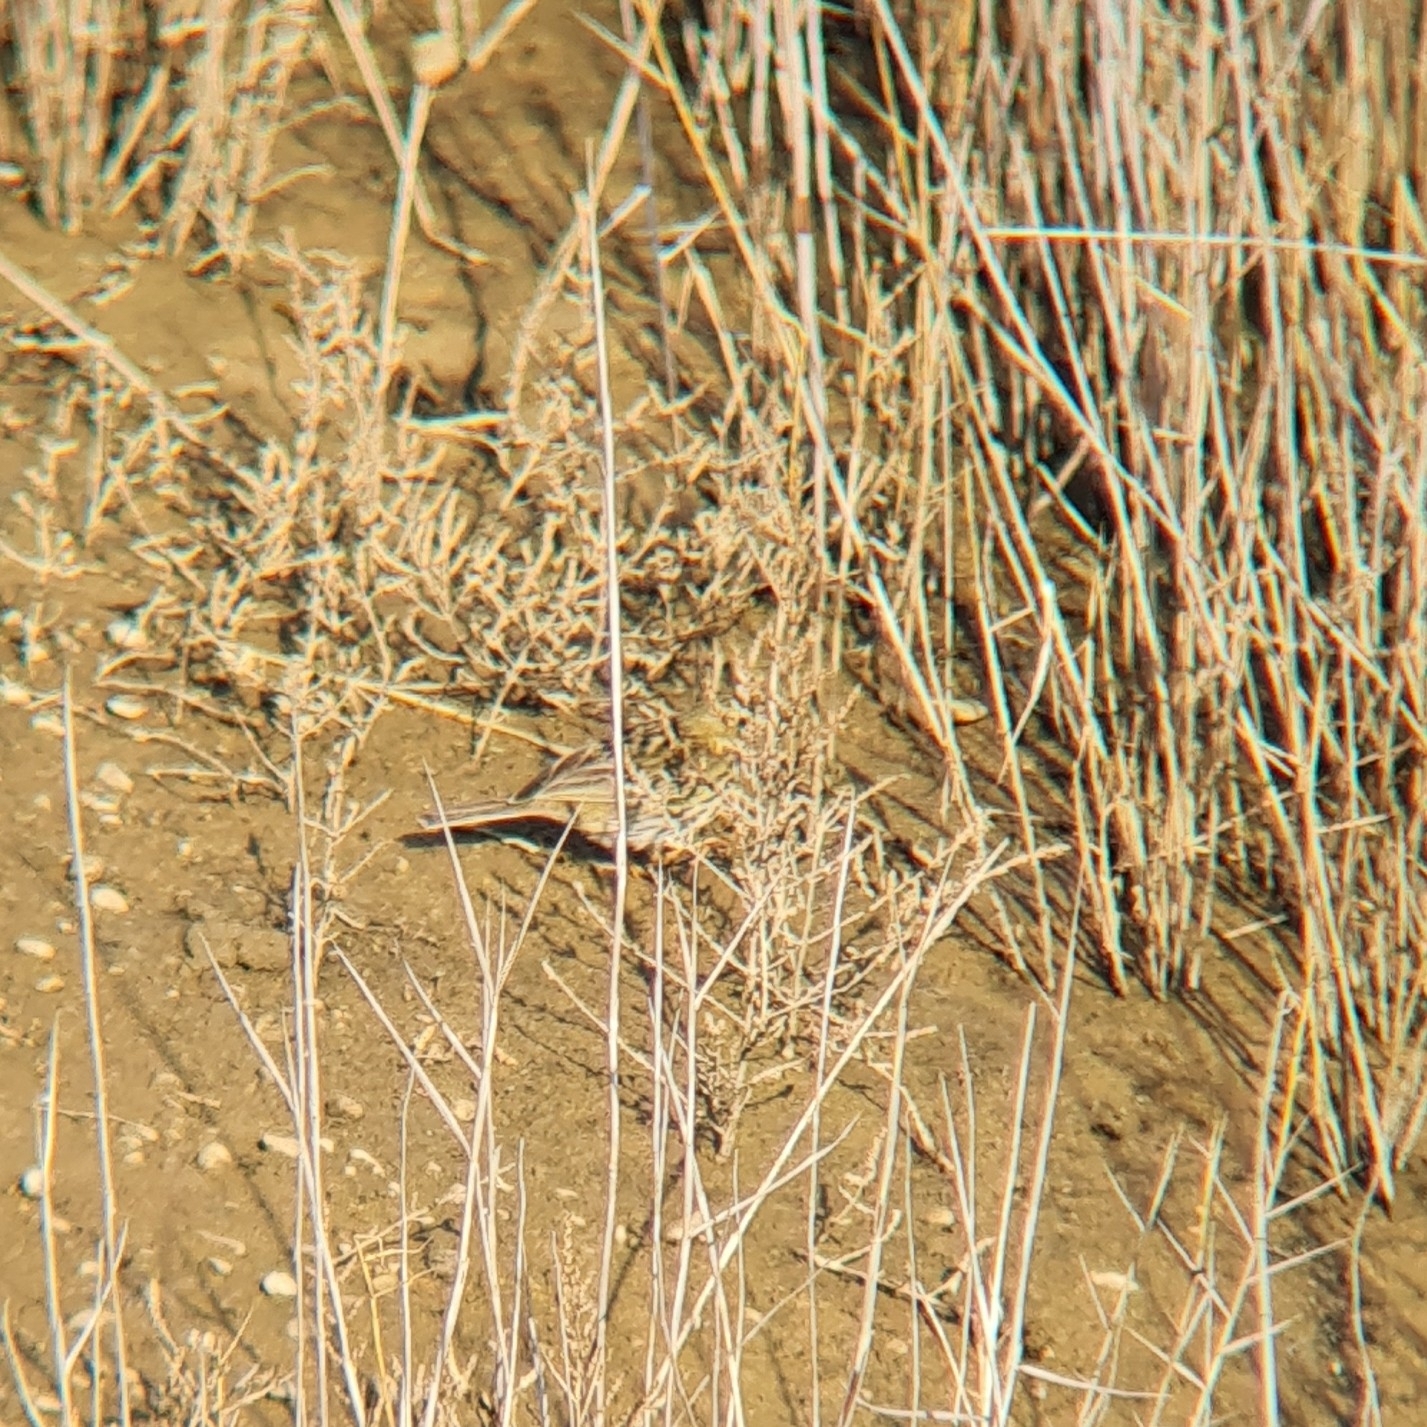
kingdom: Animalia
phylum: Chordata
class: Aves
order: Passeriformes
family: Motacillidae
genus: Anthus
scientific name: Anthus pratensis
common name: Meadow pipit
